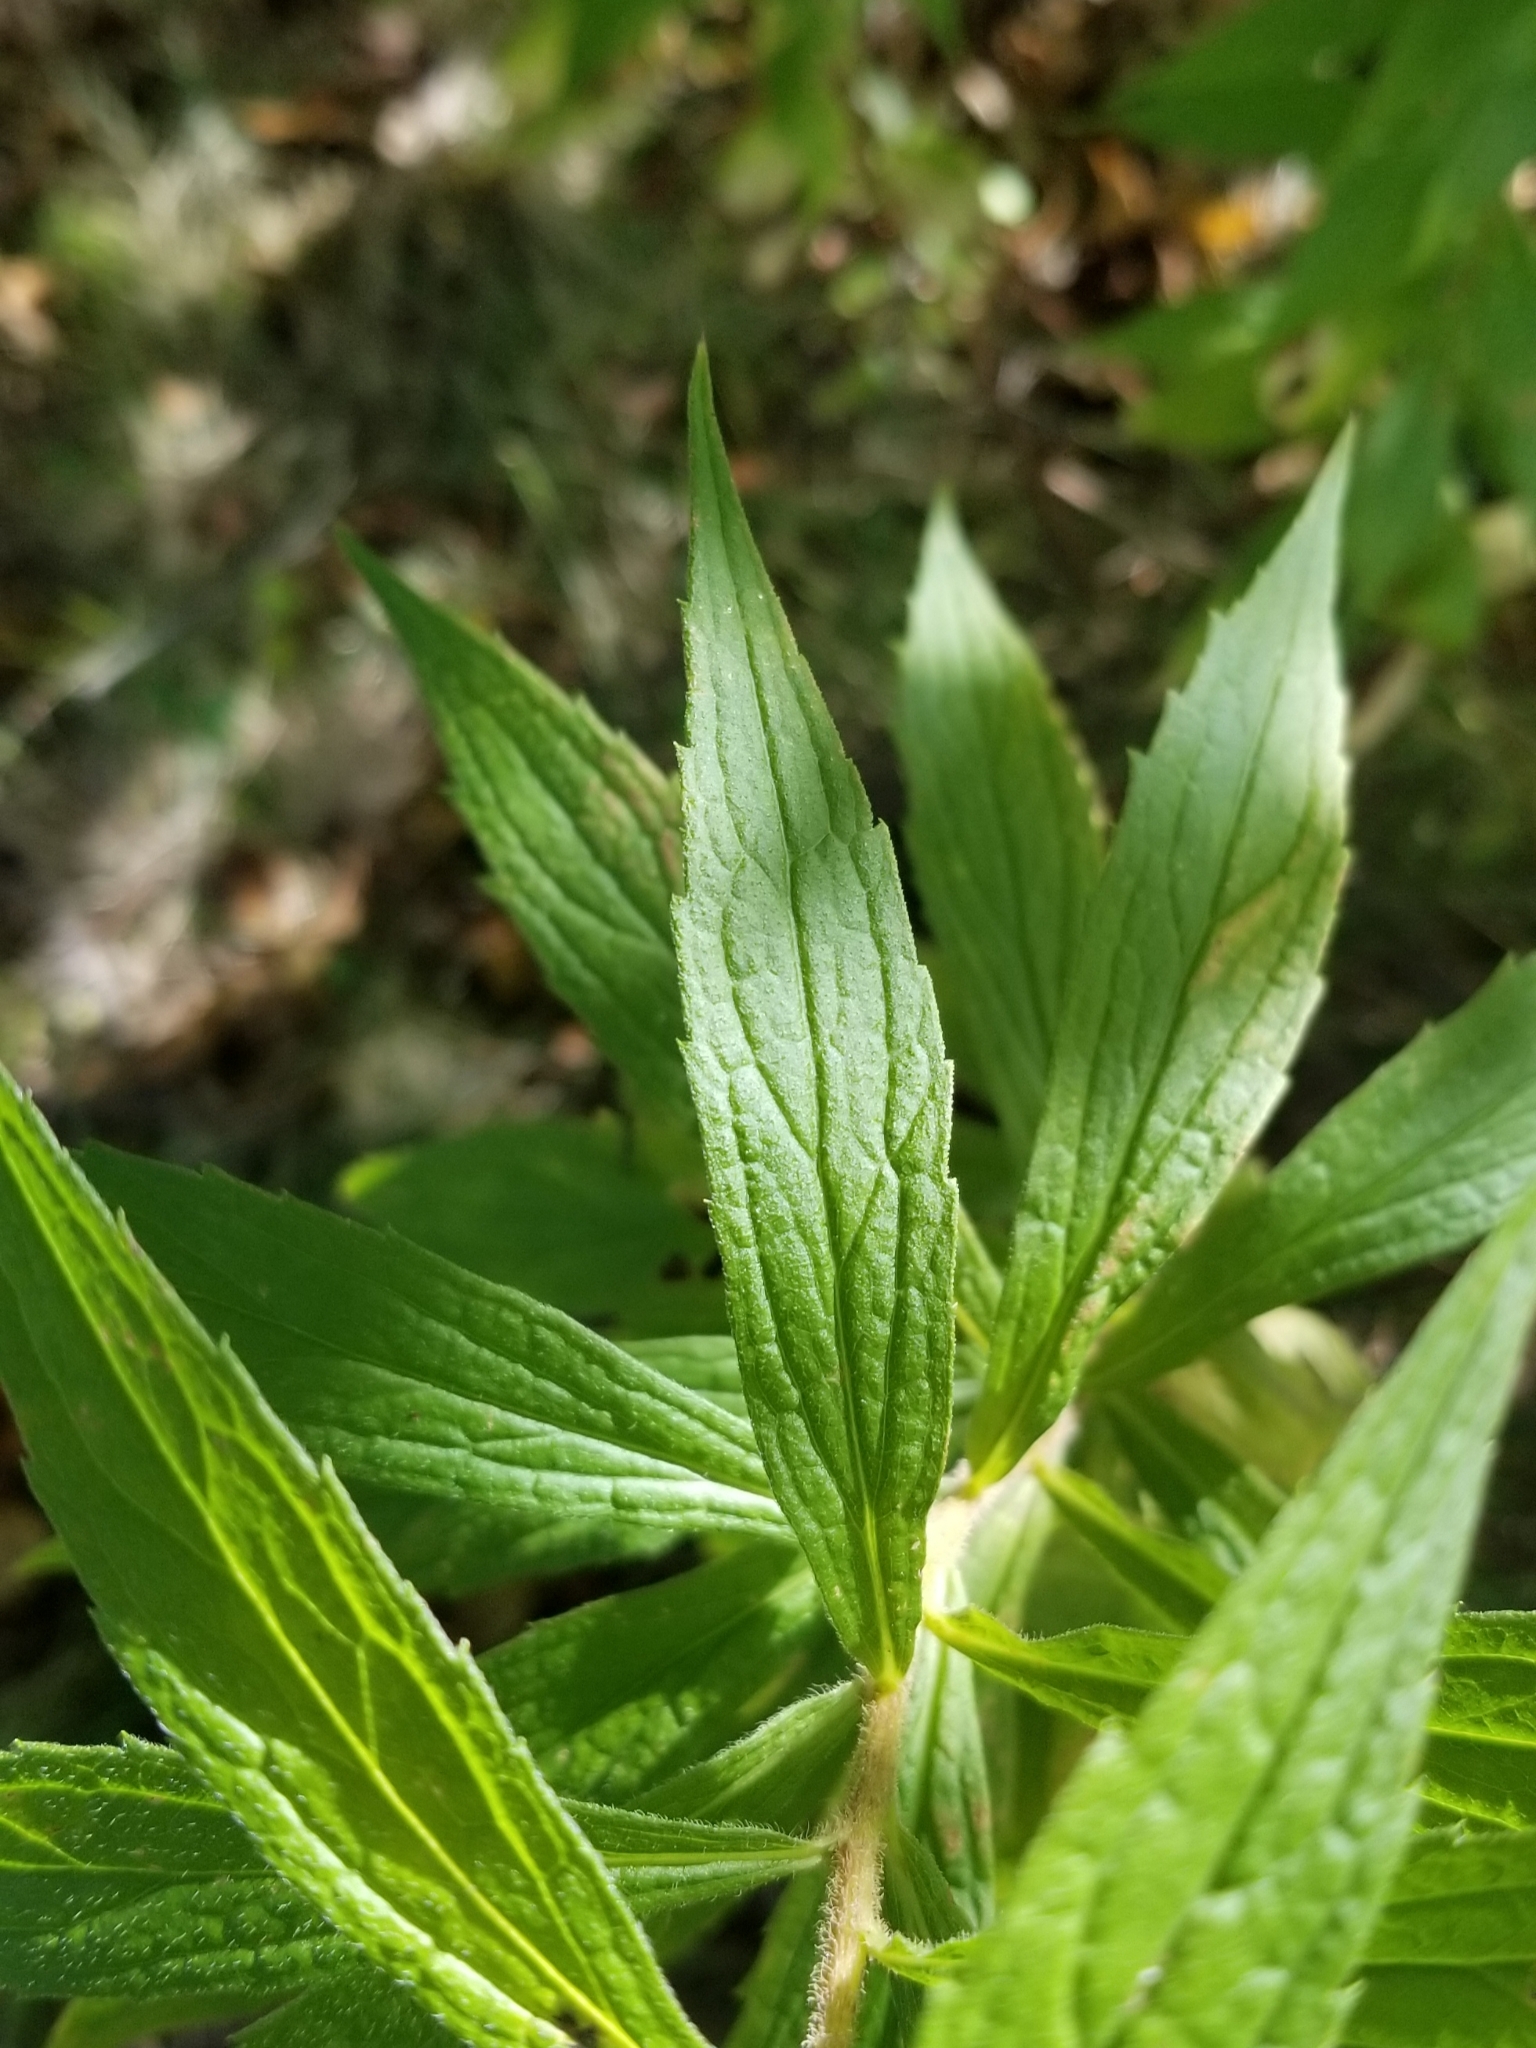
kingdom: Plantae
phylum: Tracheophyta
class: Magnoliopsida
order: Asterales
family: Asteraceae
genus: Solidago
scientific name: Solidago rugosa
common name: Rough-stemmed goldenrod
